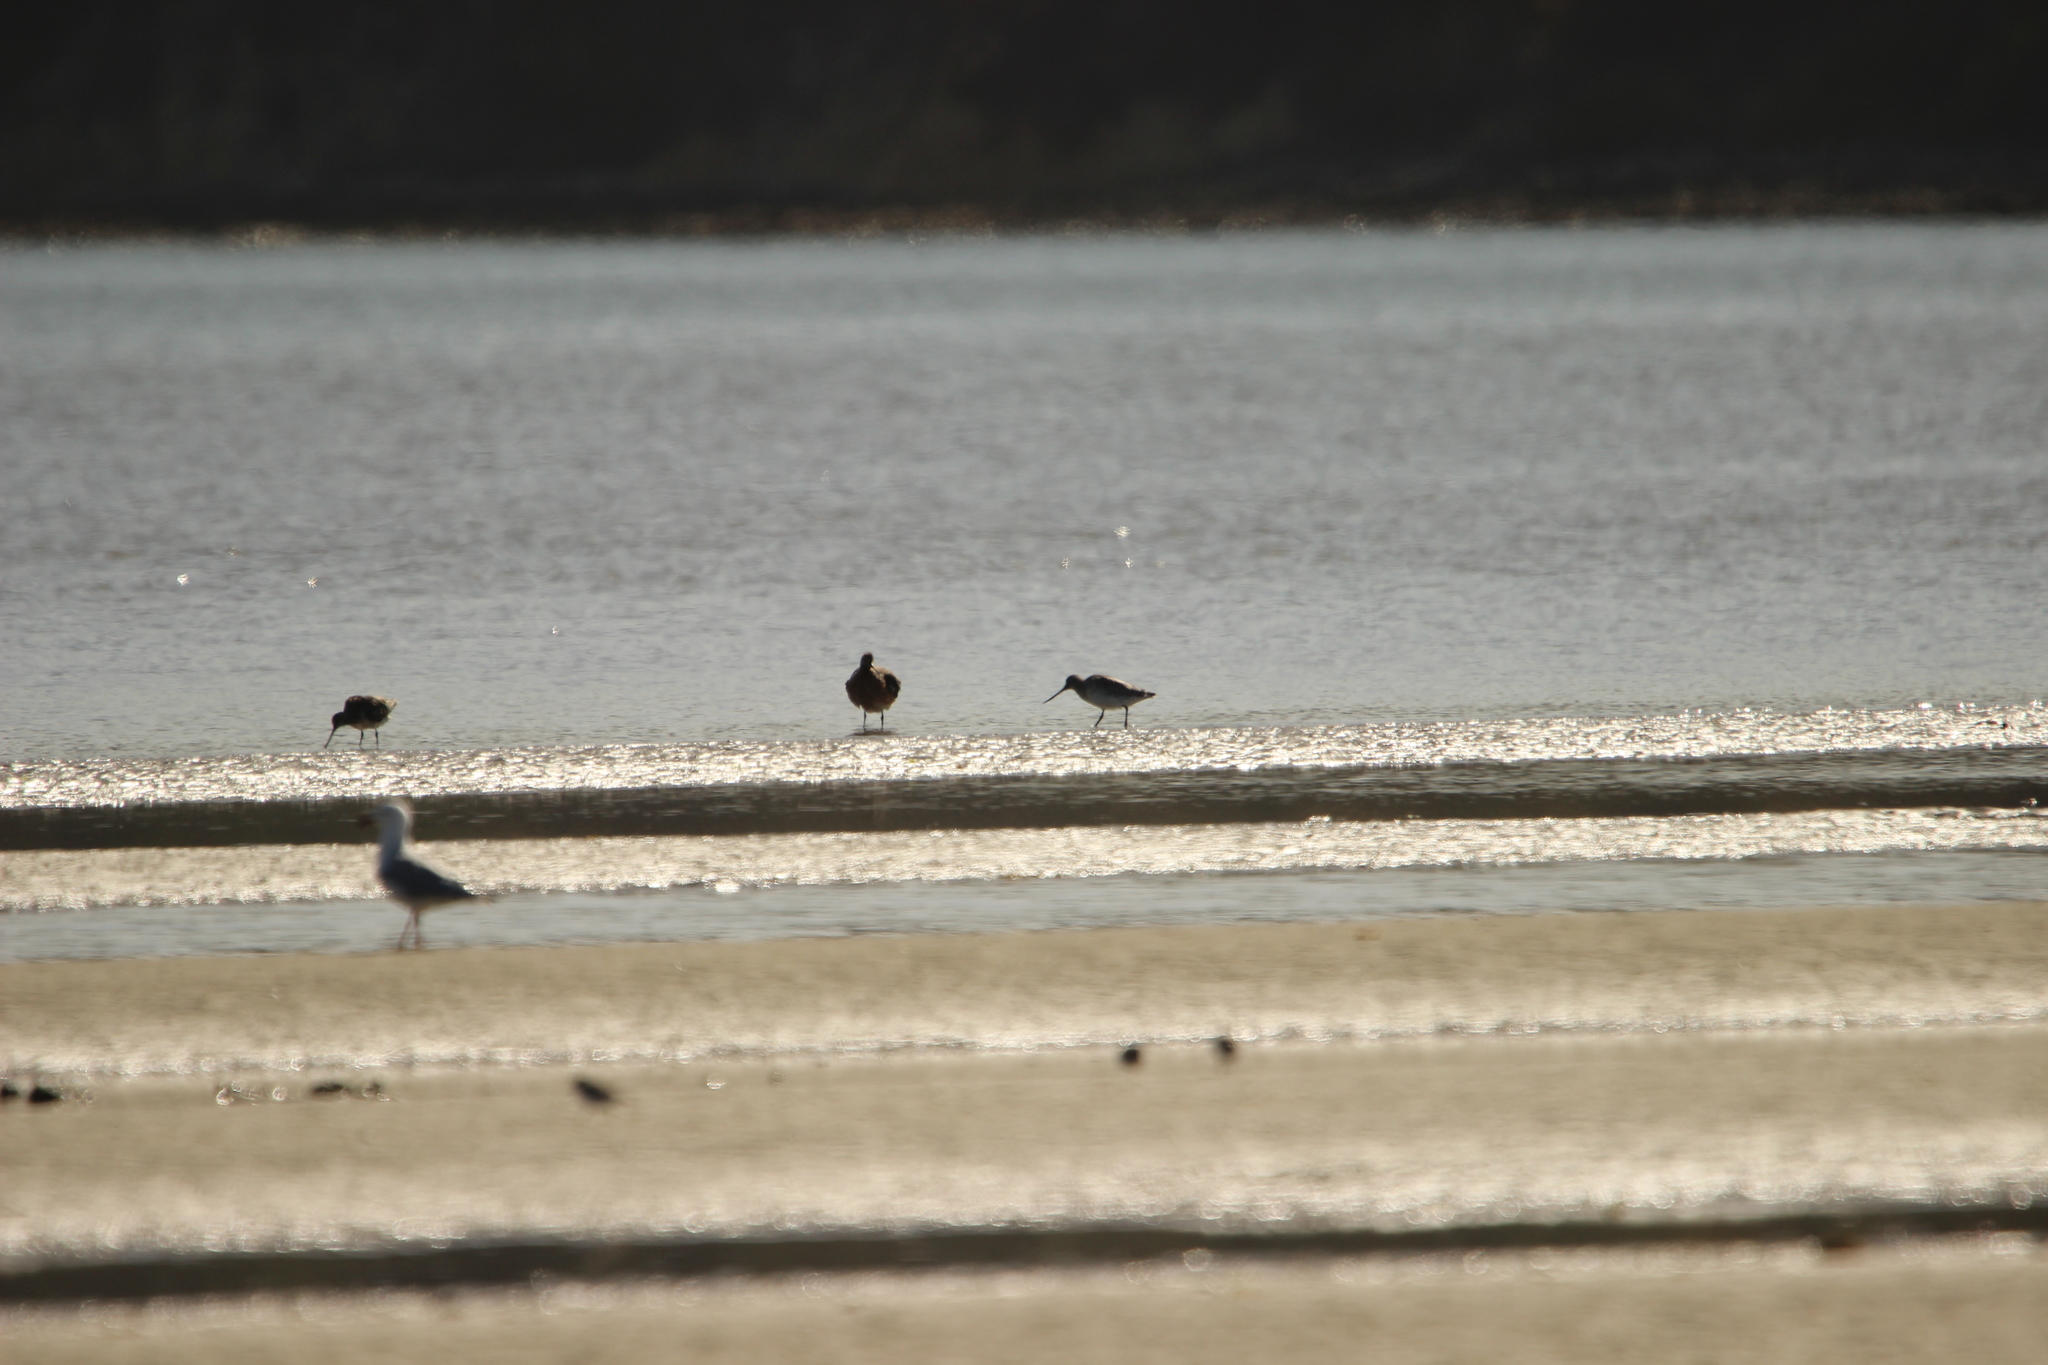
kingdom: Animalia
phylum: Chordata
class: Aves
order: Charadriiformes
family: Scolopacidae
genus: Limosa
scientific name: Limosa lapponica
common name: Bar-tailed godwit
